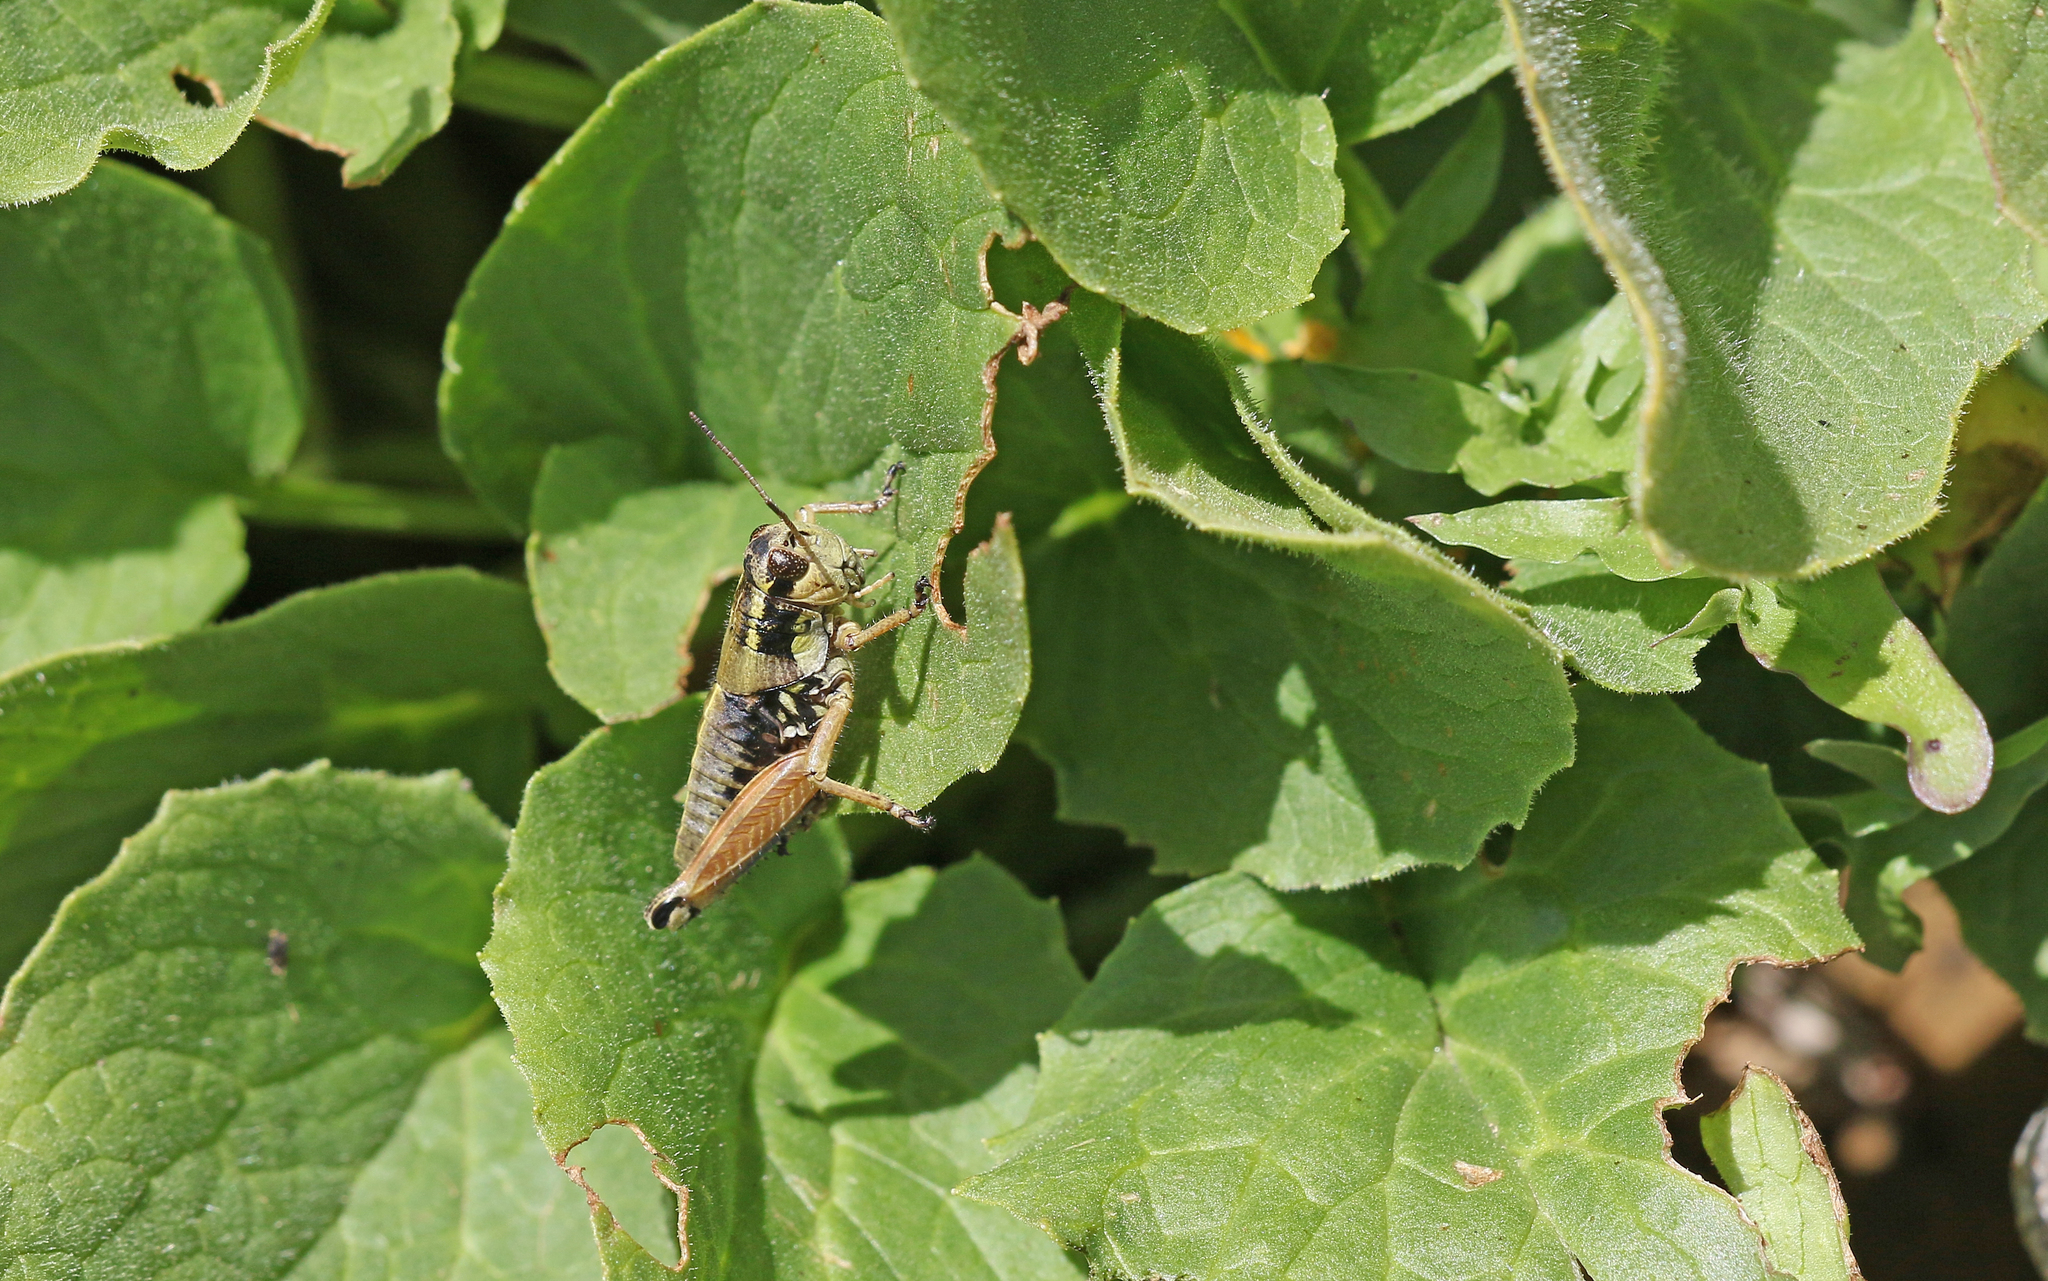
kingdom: Animalia
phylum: Arthropoda
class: Insecta
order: Orthoptera
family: Acrididae
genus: Podisma
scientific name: Podisma dechambrei
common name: Alpes-maritimes mountain grasshopper
